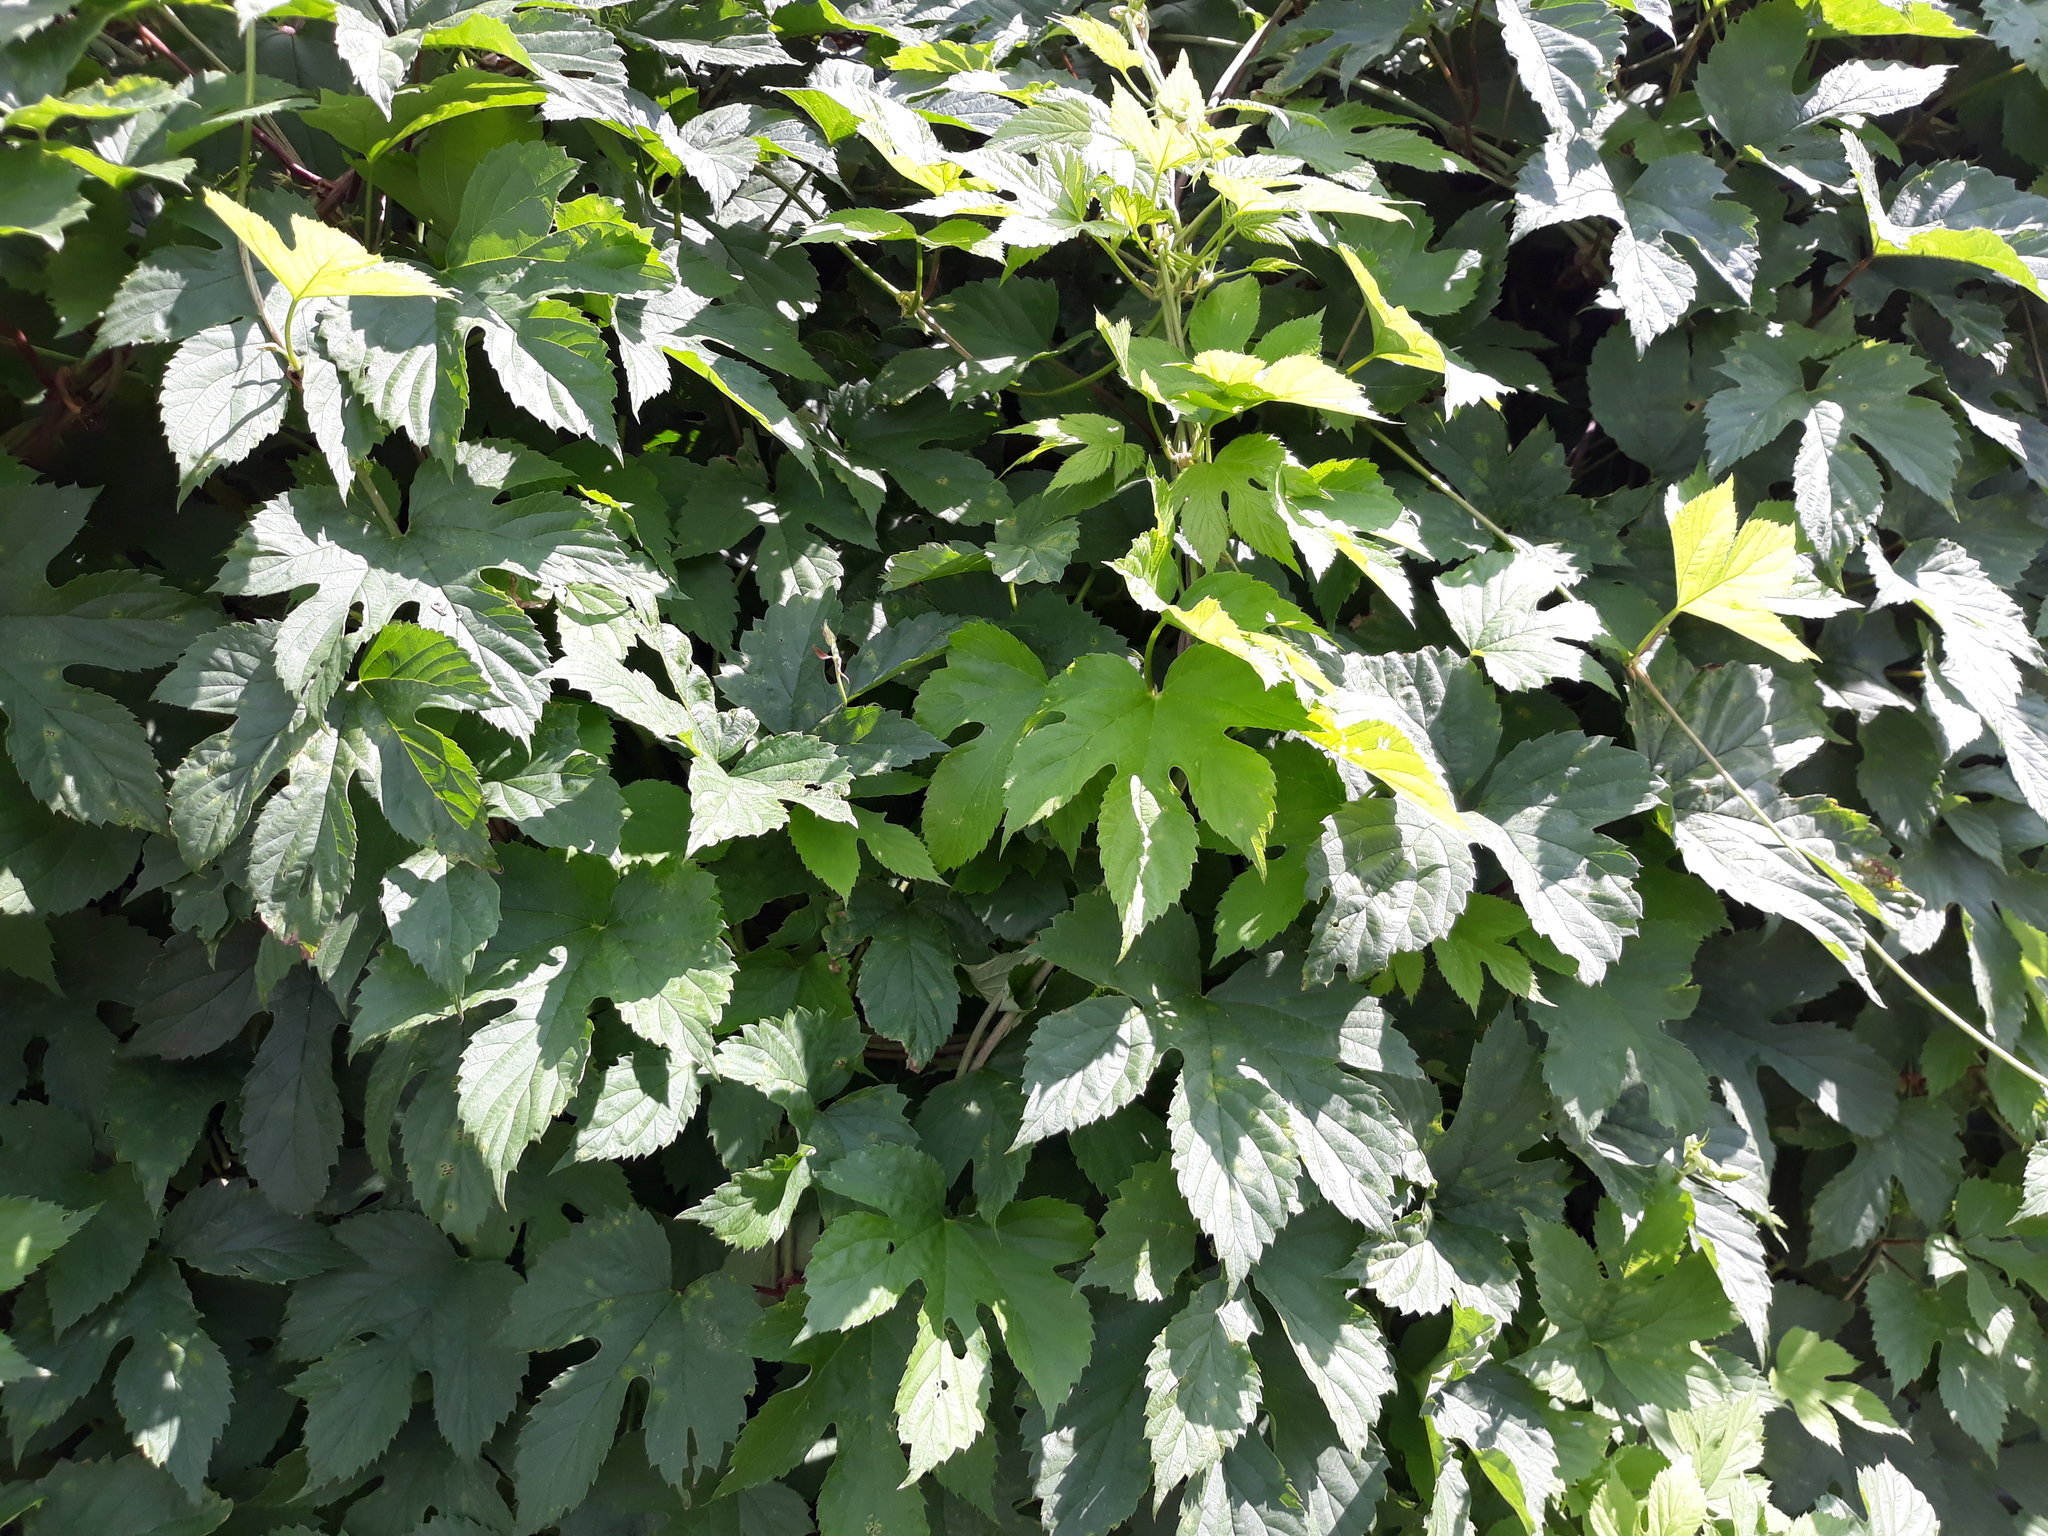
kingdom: Plantae
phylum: Tracheophyta
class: Magnoliopsida
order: Rosales
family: Cannabaceae
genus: Humulus
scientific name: Humulus lupulus
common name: Hop
